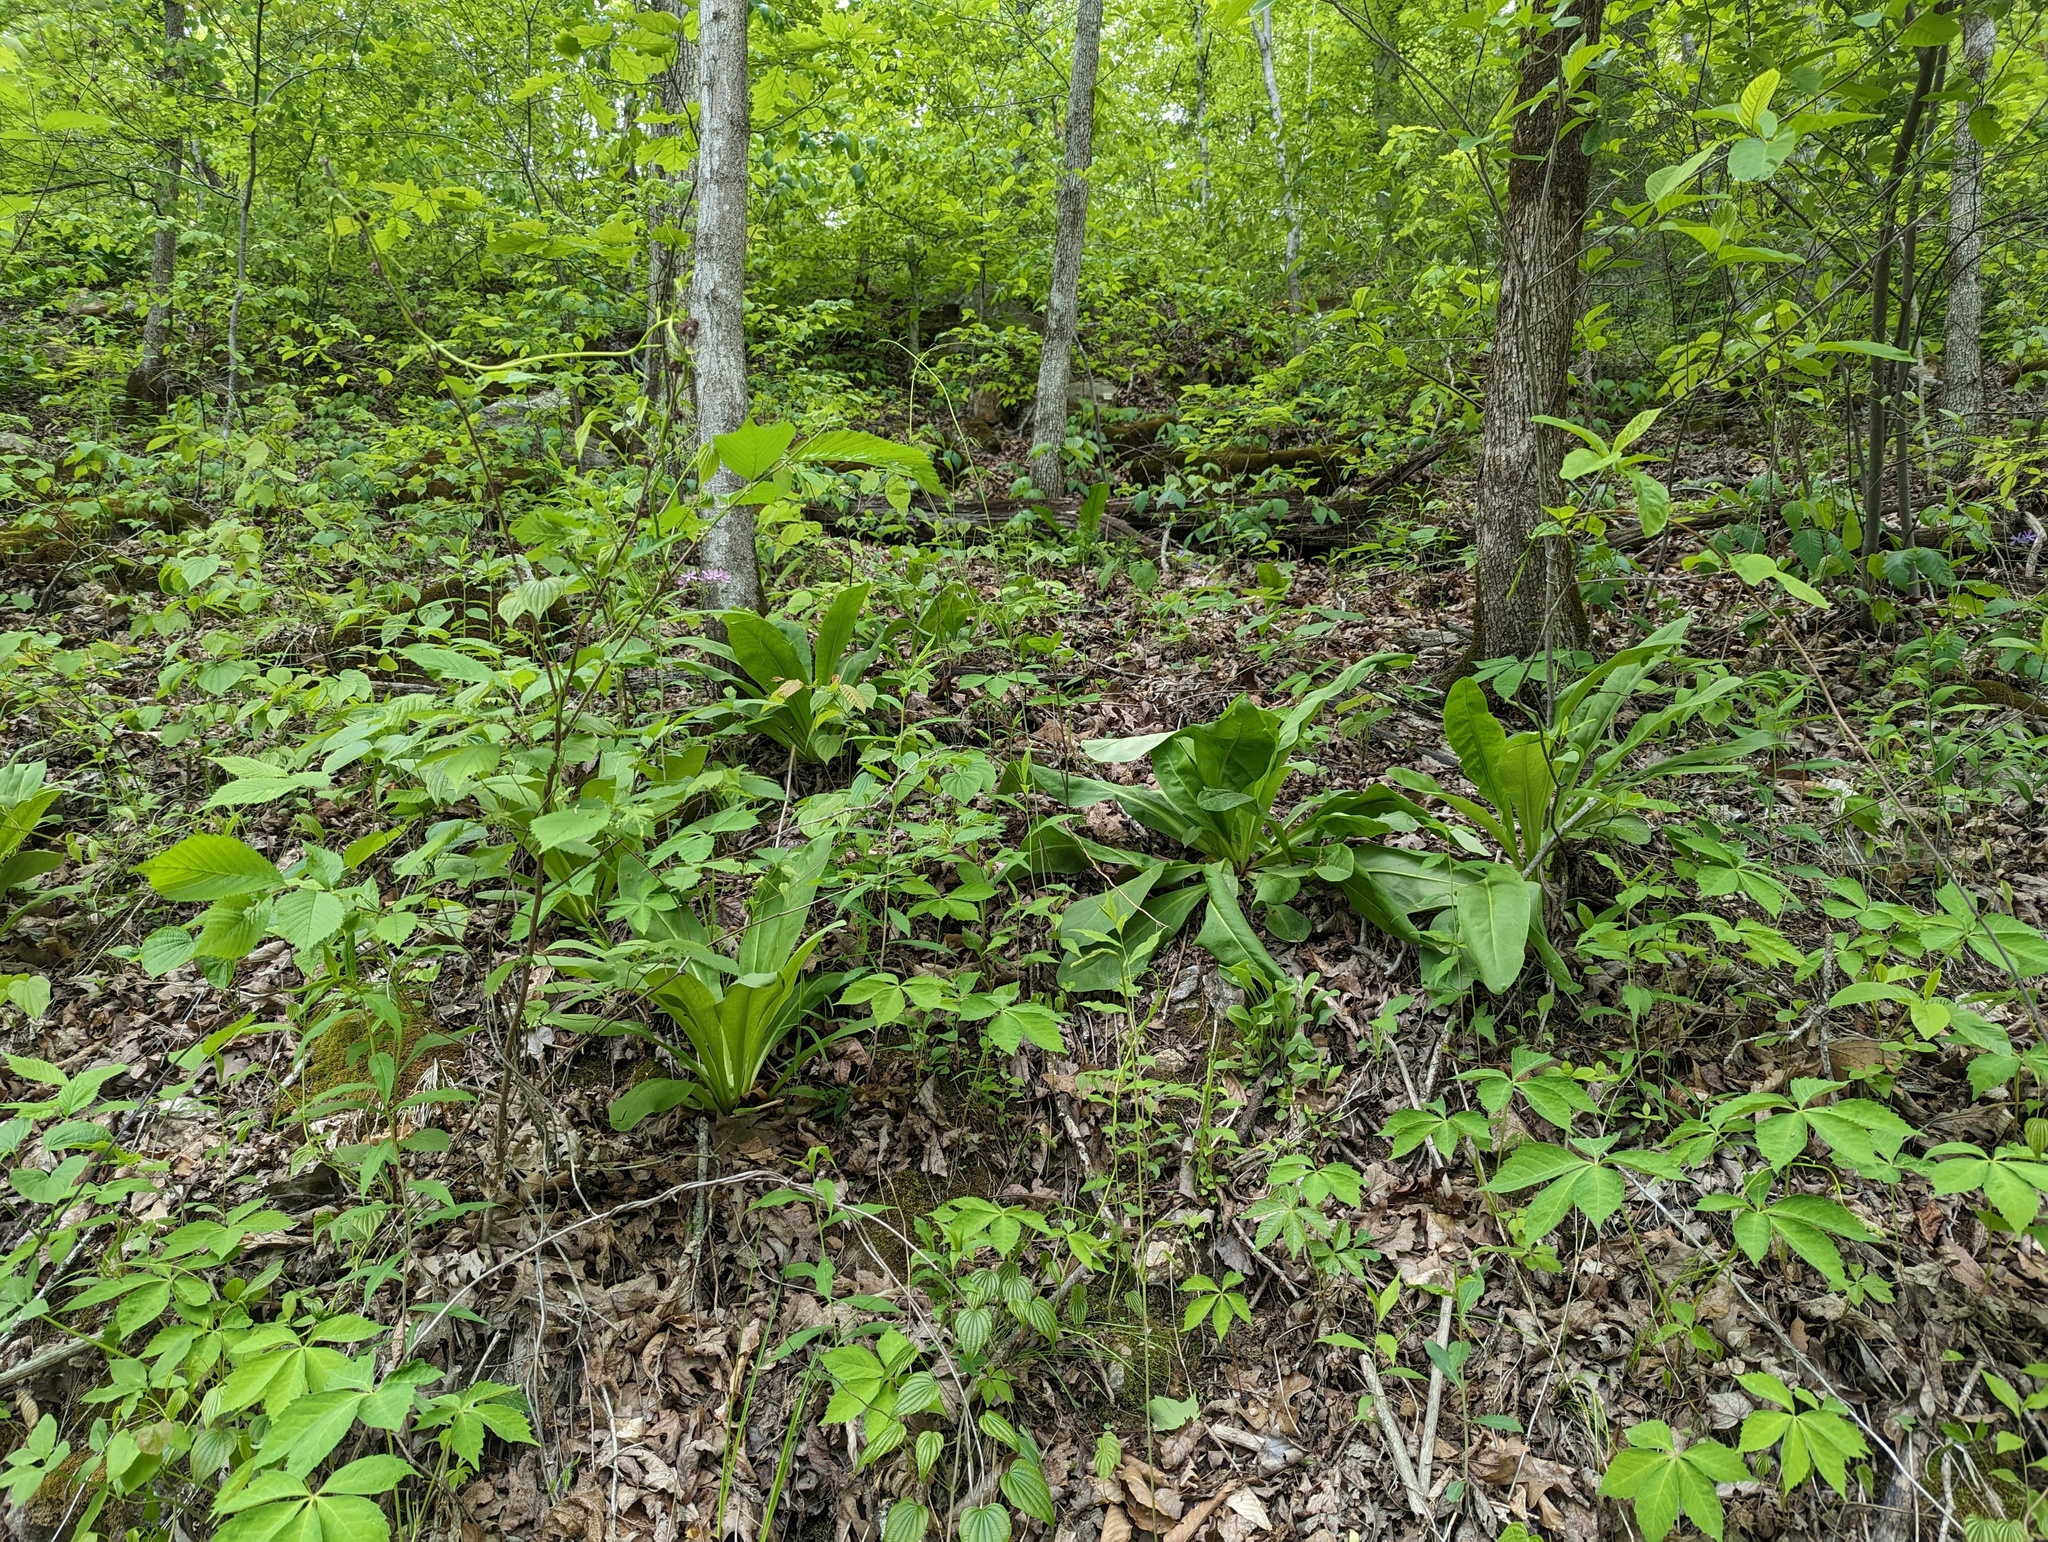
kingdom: Plantae
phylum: Tracheophyta
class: Magnoliopsida
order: Gentianales
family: Gentianaceae
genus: Frasera
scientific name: Frasera caroliniensis
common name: American columbo
